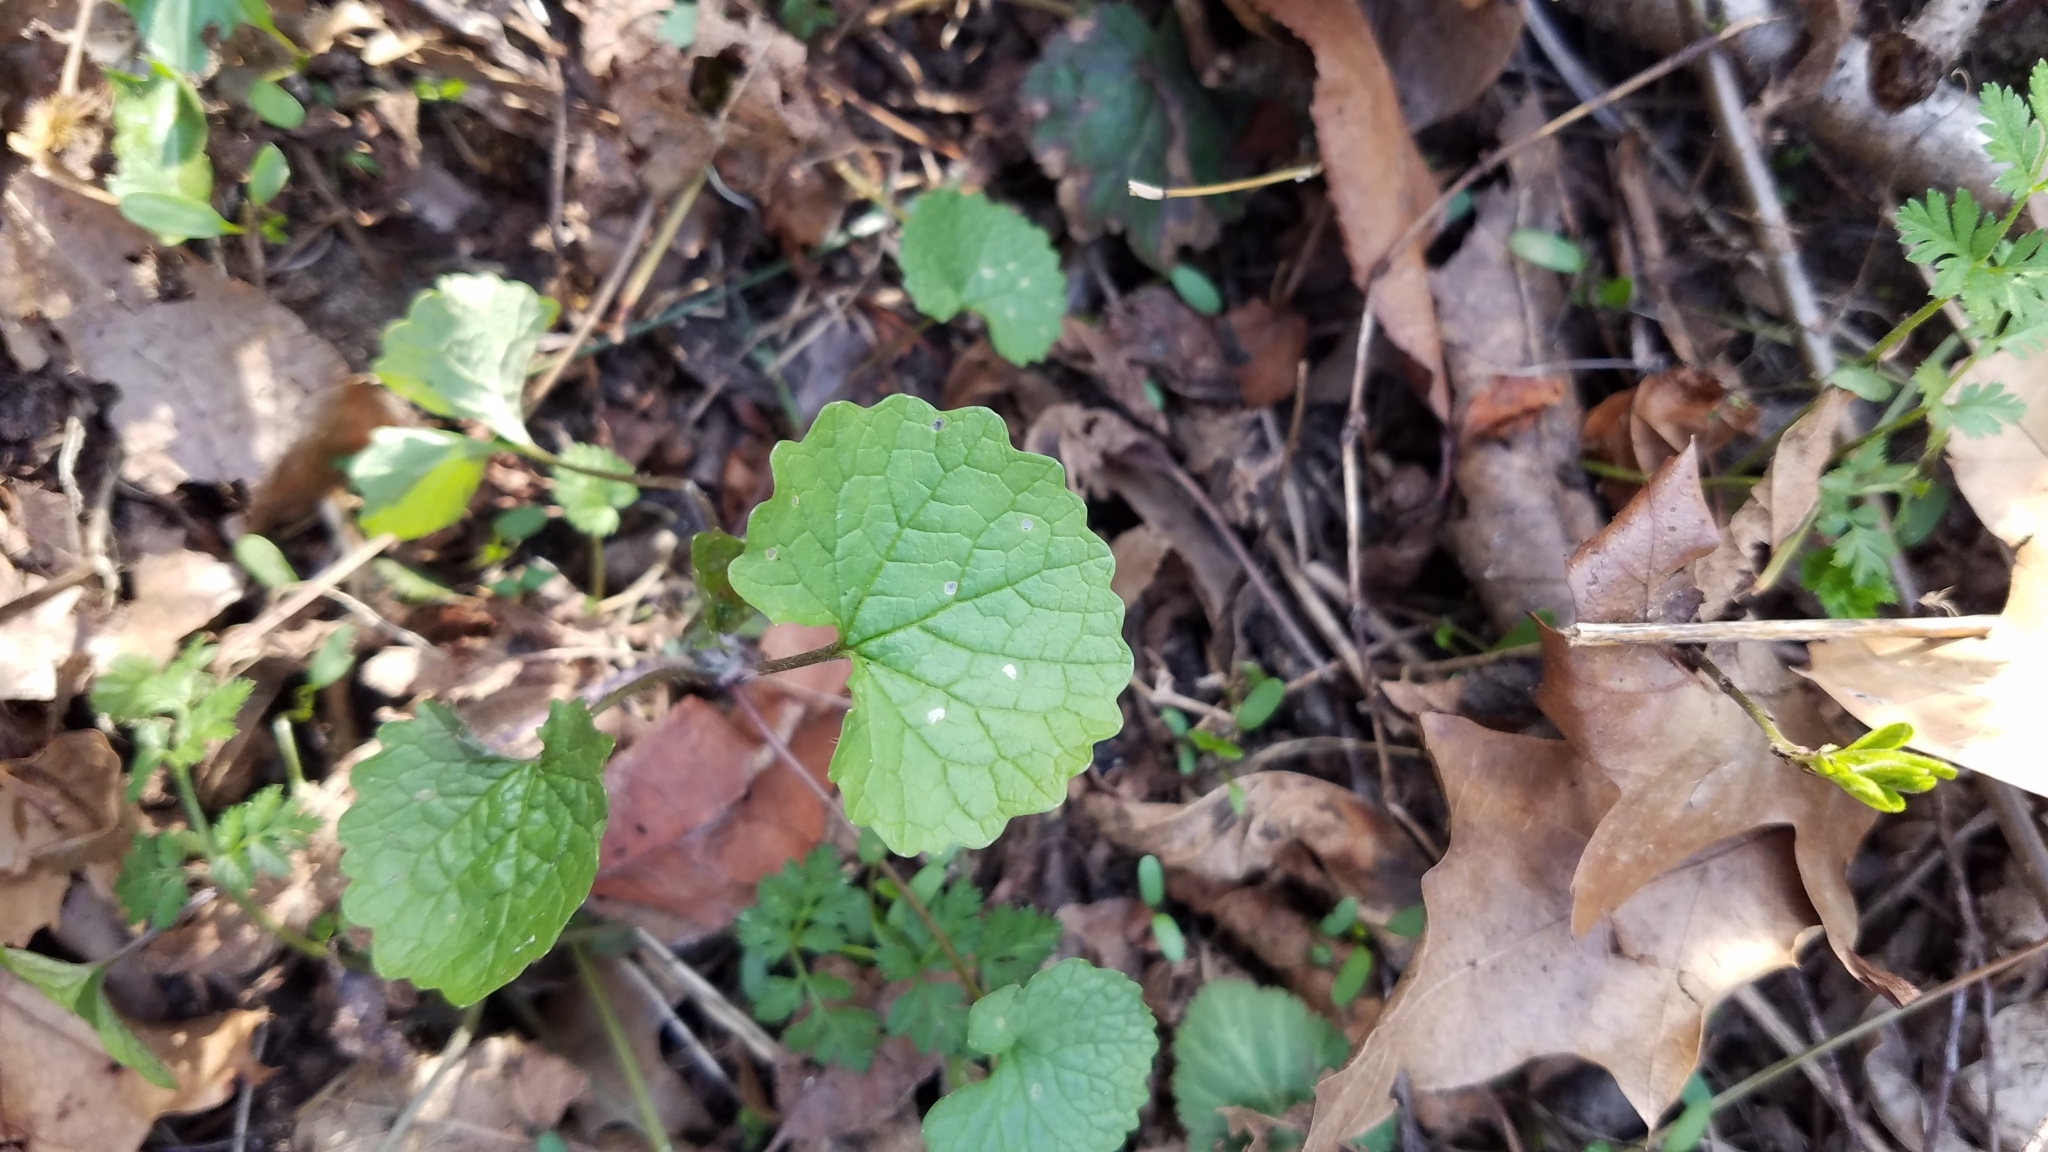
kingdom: Plantae
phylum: Tracheophyta
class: Magnoliopsida
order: Brassicales
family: Brassicaceae
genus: Alliaria
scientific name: Alliaria petiolata
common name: Garlic mustard
